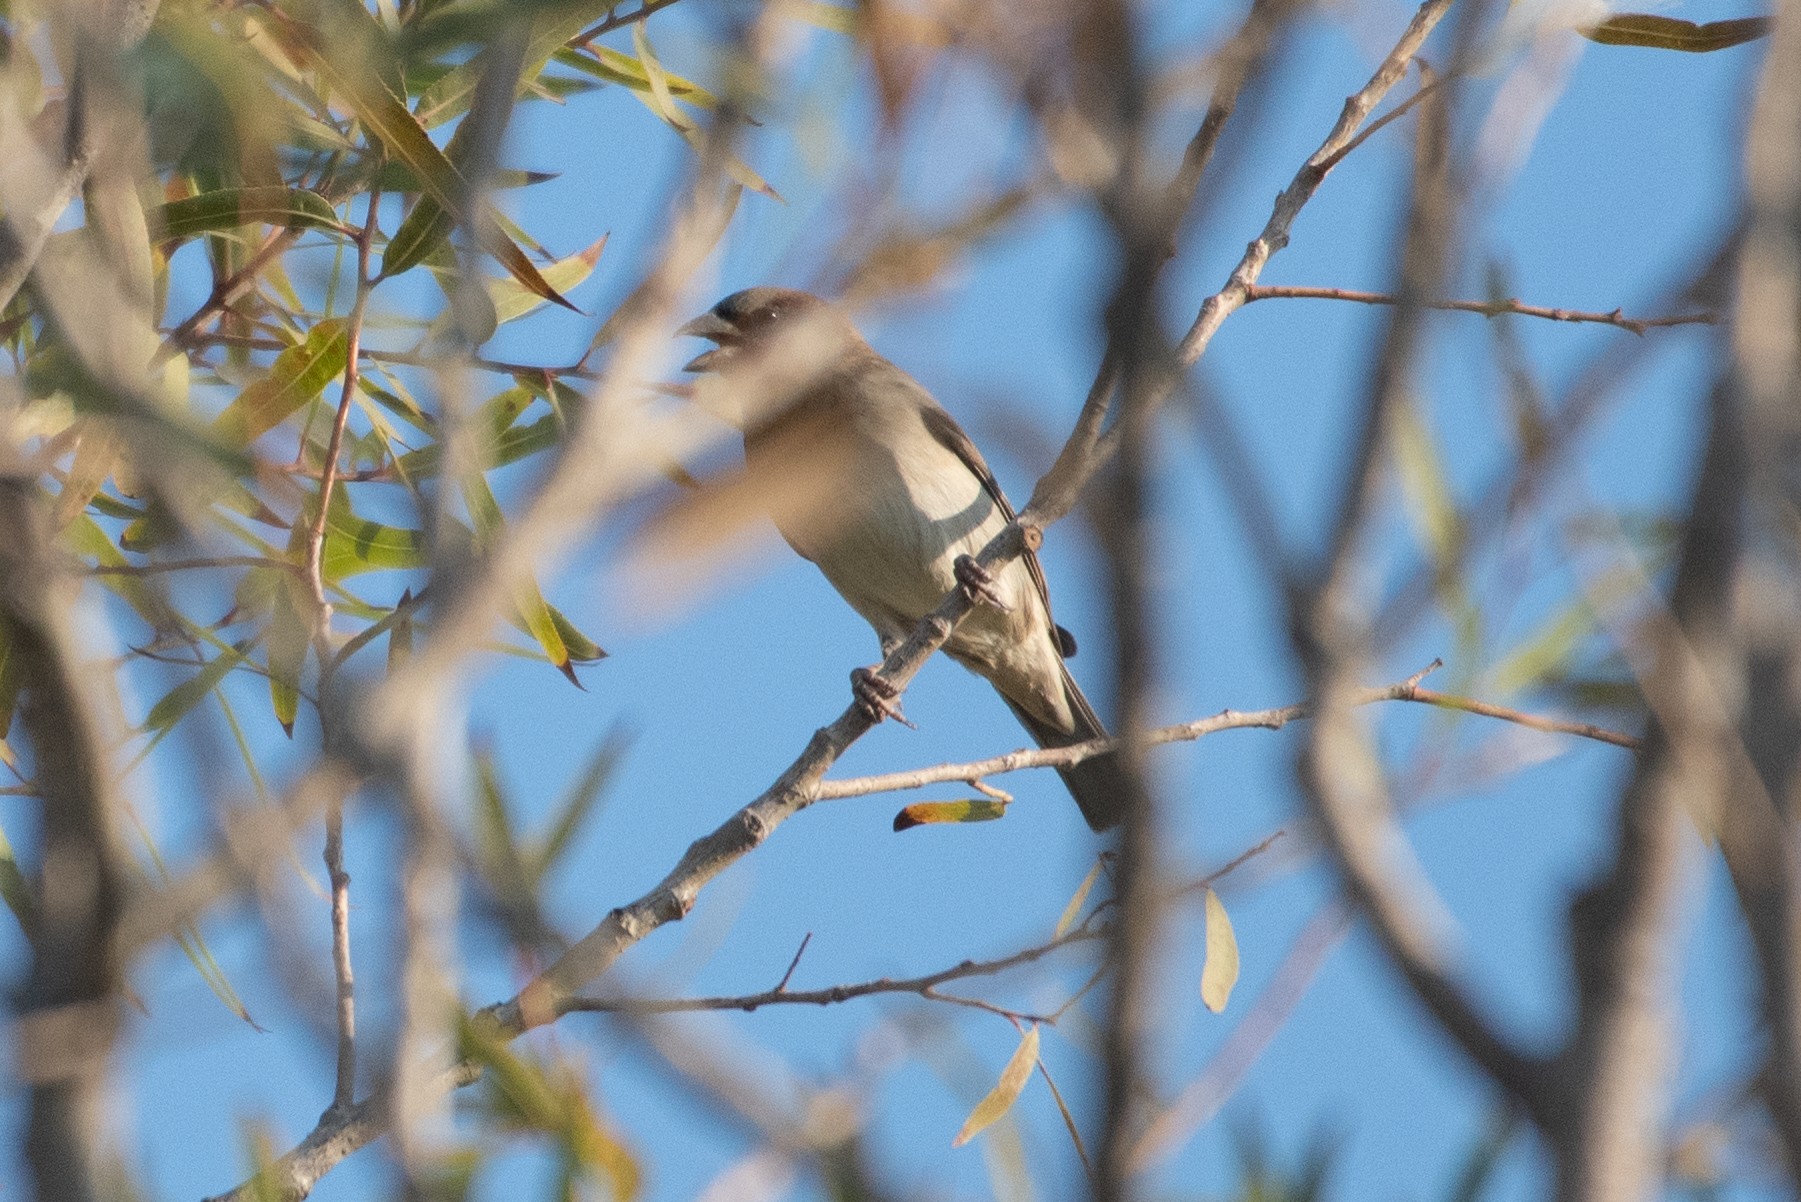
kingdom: Animalia
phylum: Chordata
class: Aves
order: Passeriformes
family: Passeridae
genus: Passer
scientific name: Passer domesticus
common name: House sparrow
